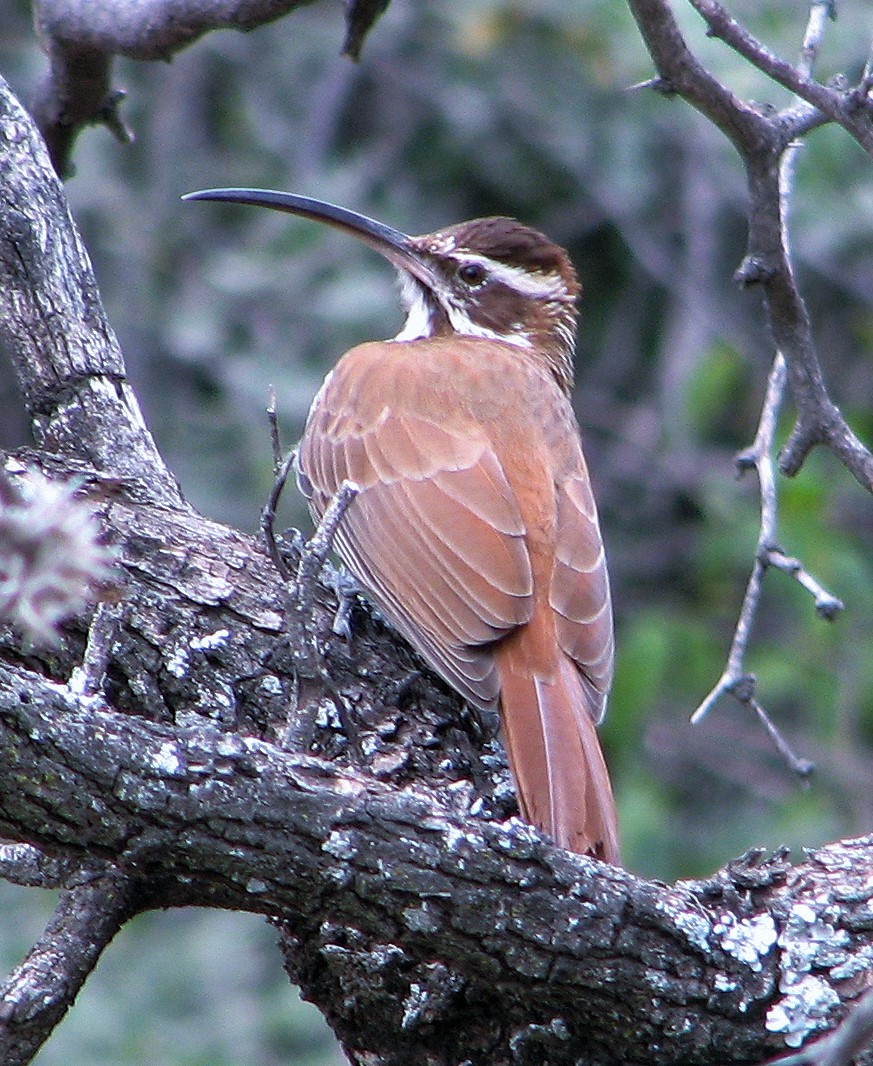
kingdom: Animalia
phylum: Chordata
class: Aves
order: Passeriformes
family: Furnariidae
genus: Drymornis
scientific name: Drymornis bridgesii
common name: Scimitar-billed woodcreeper
